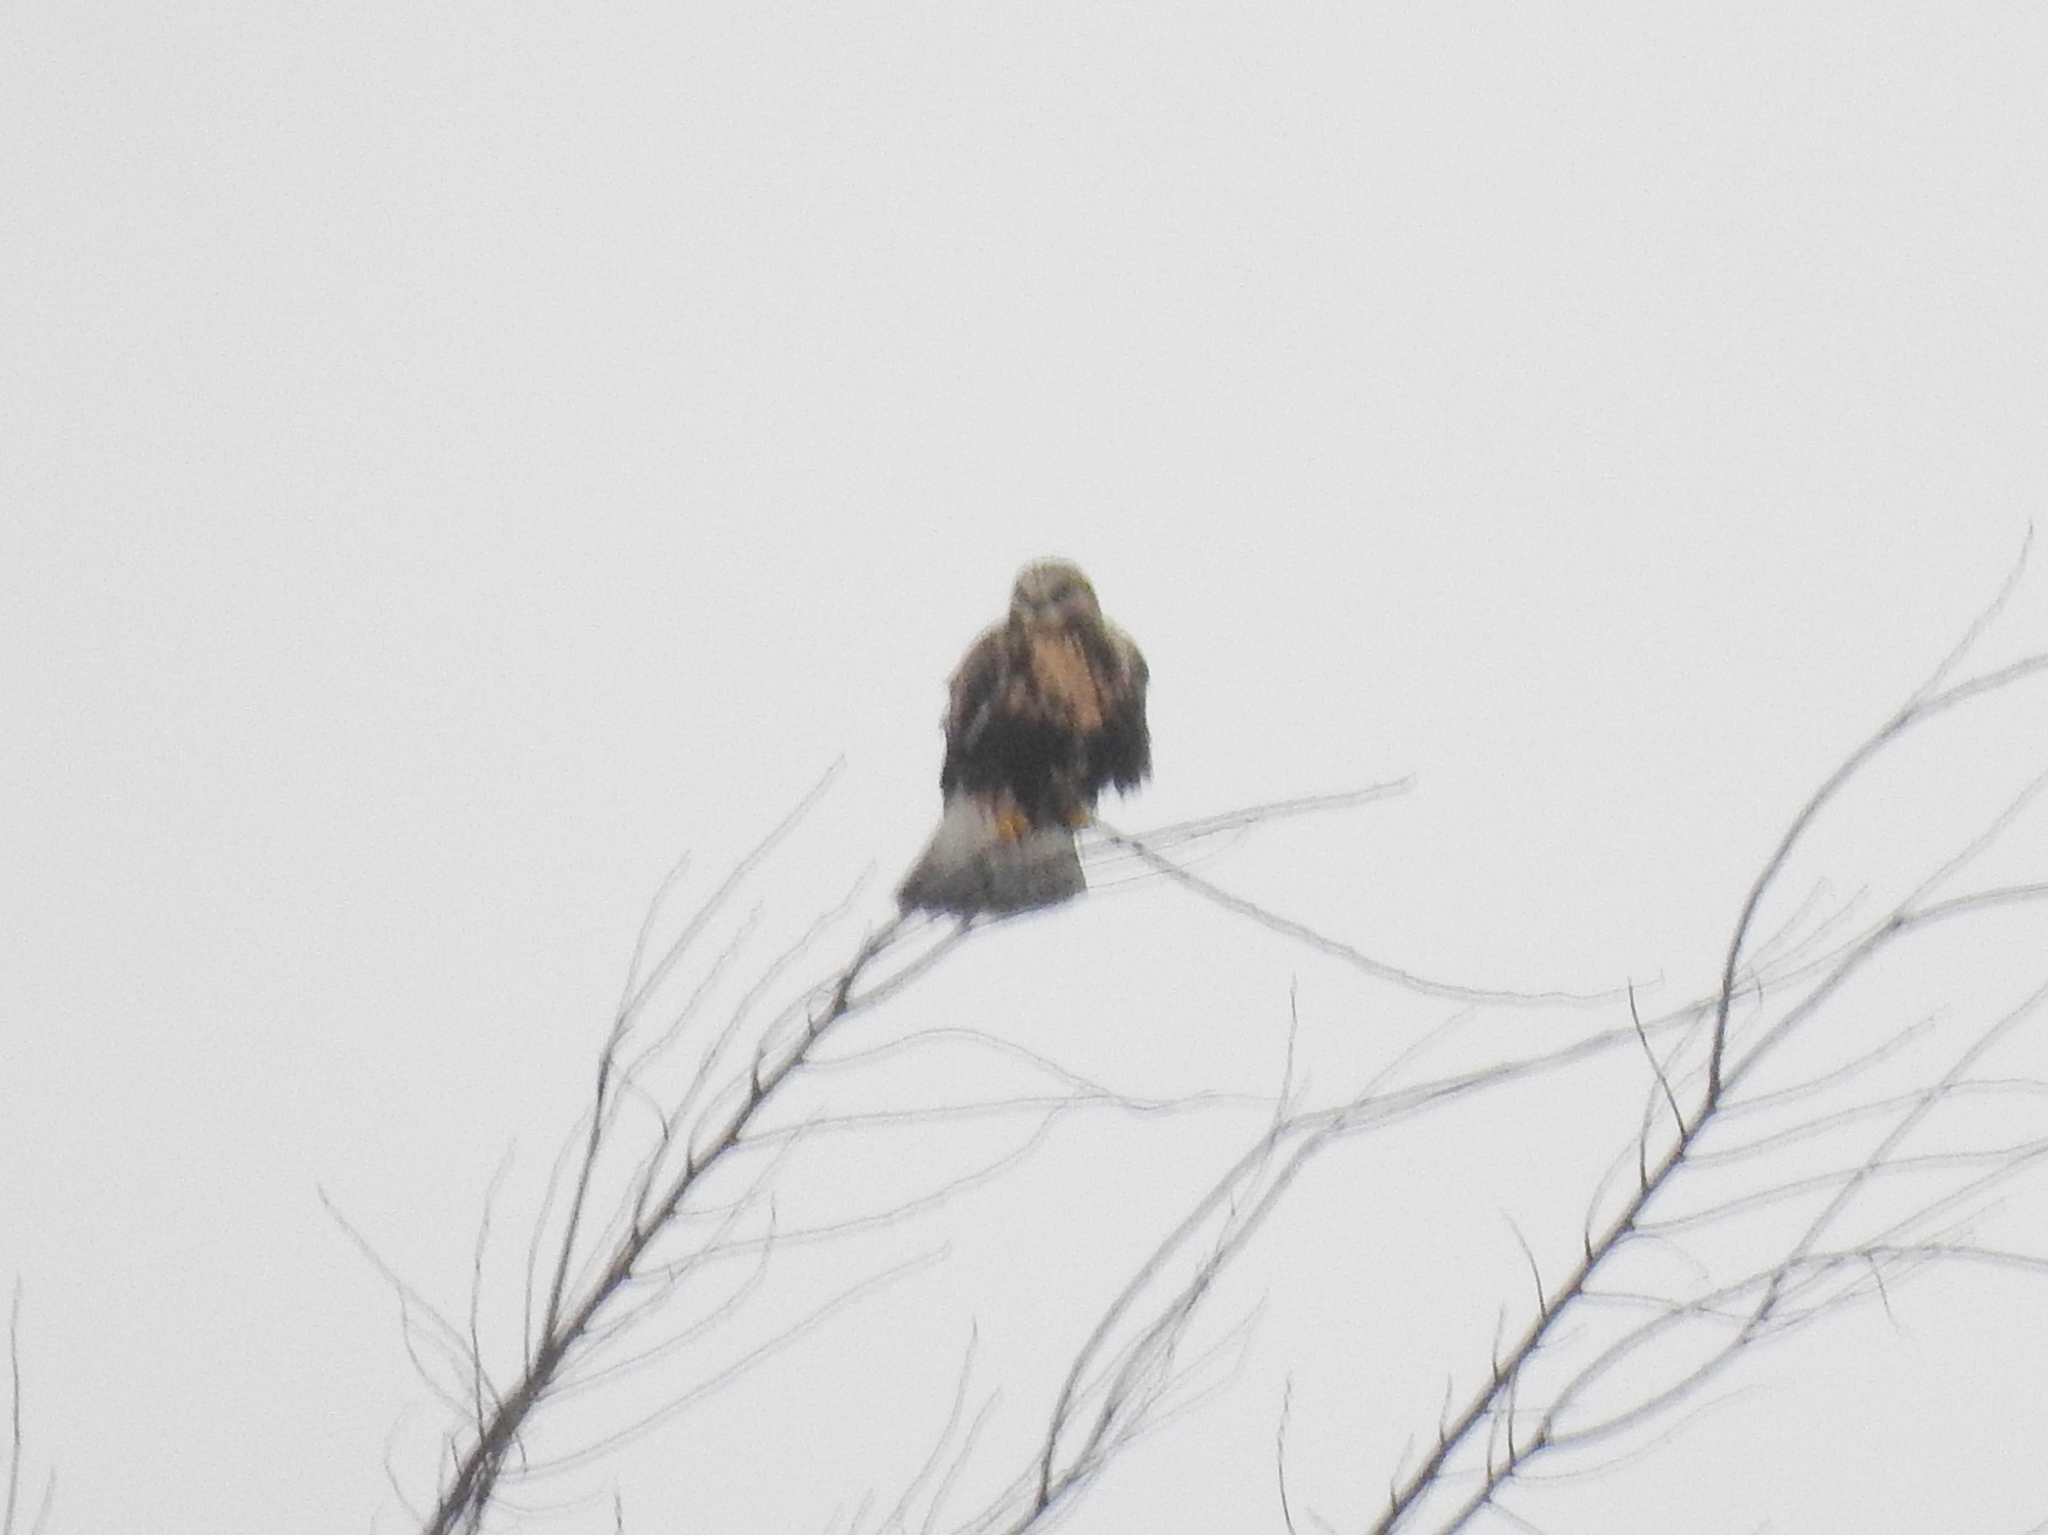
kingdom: Animalia
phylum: Chordata
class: Aves
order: Accipitriformes
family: Accipitridae
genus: Buteo
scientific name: Buteo lagopus
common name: Rough-legged buzzard
